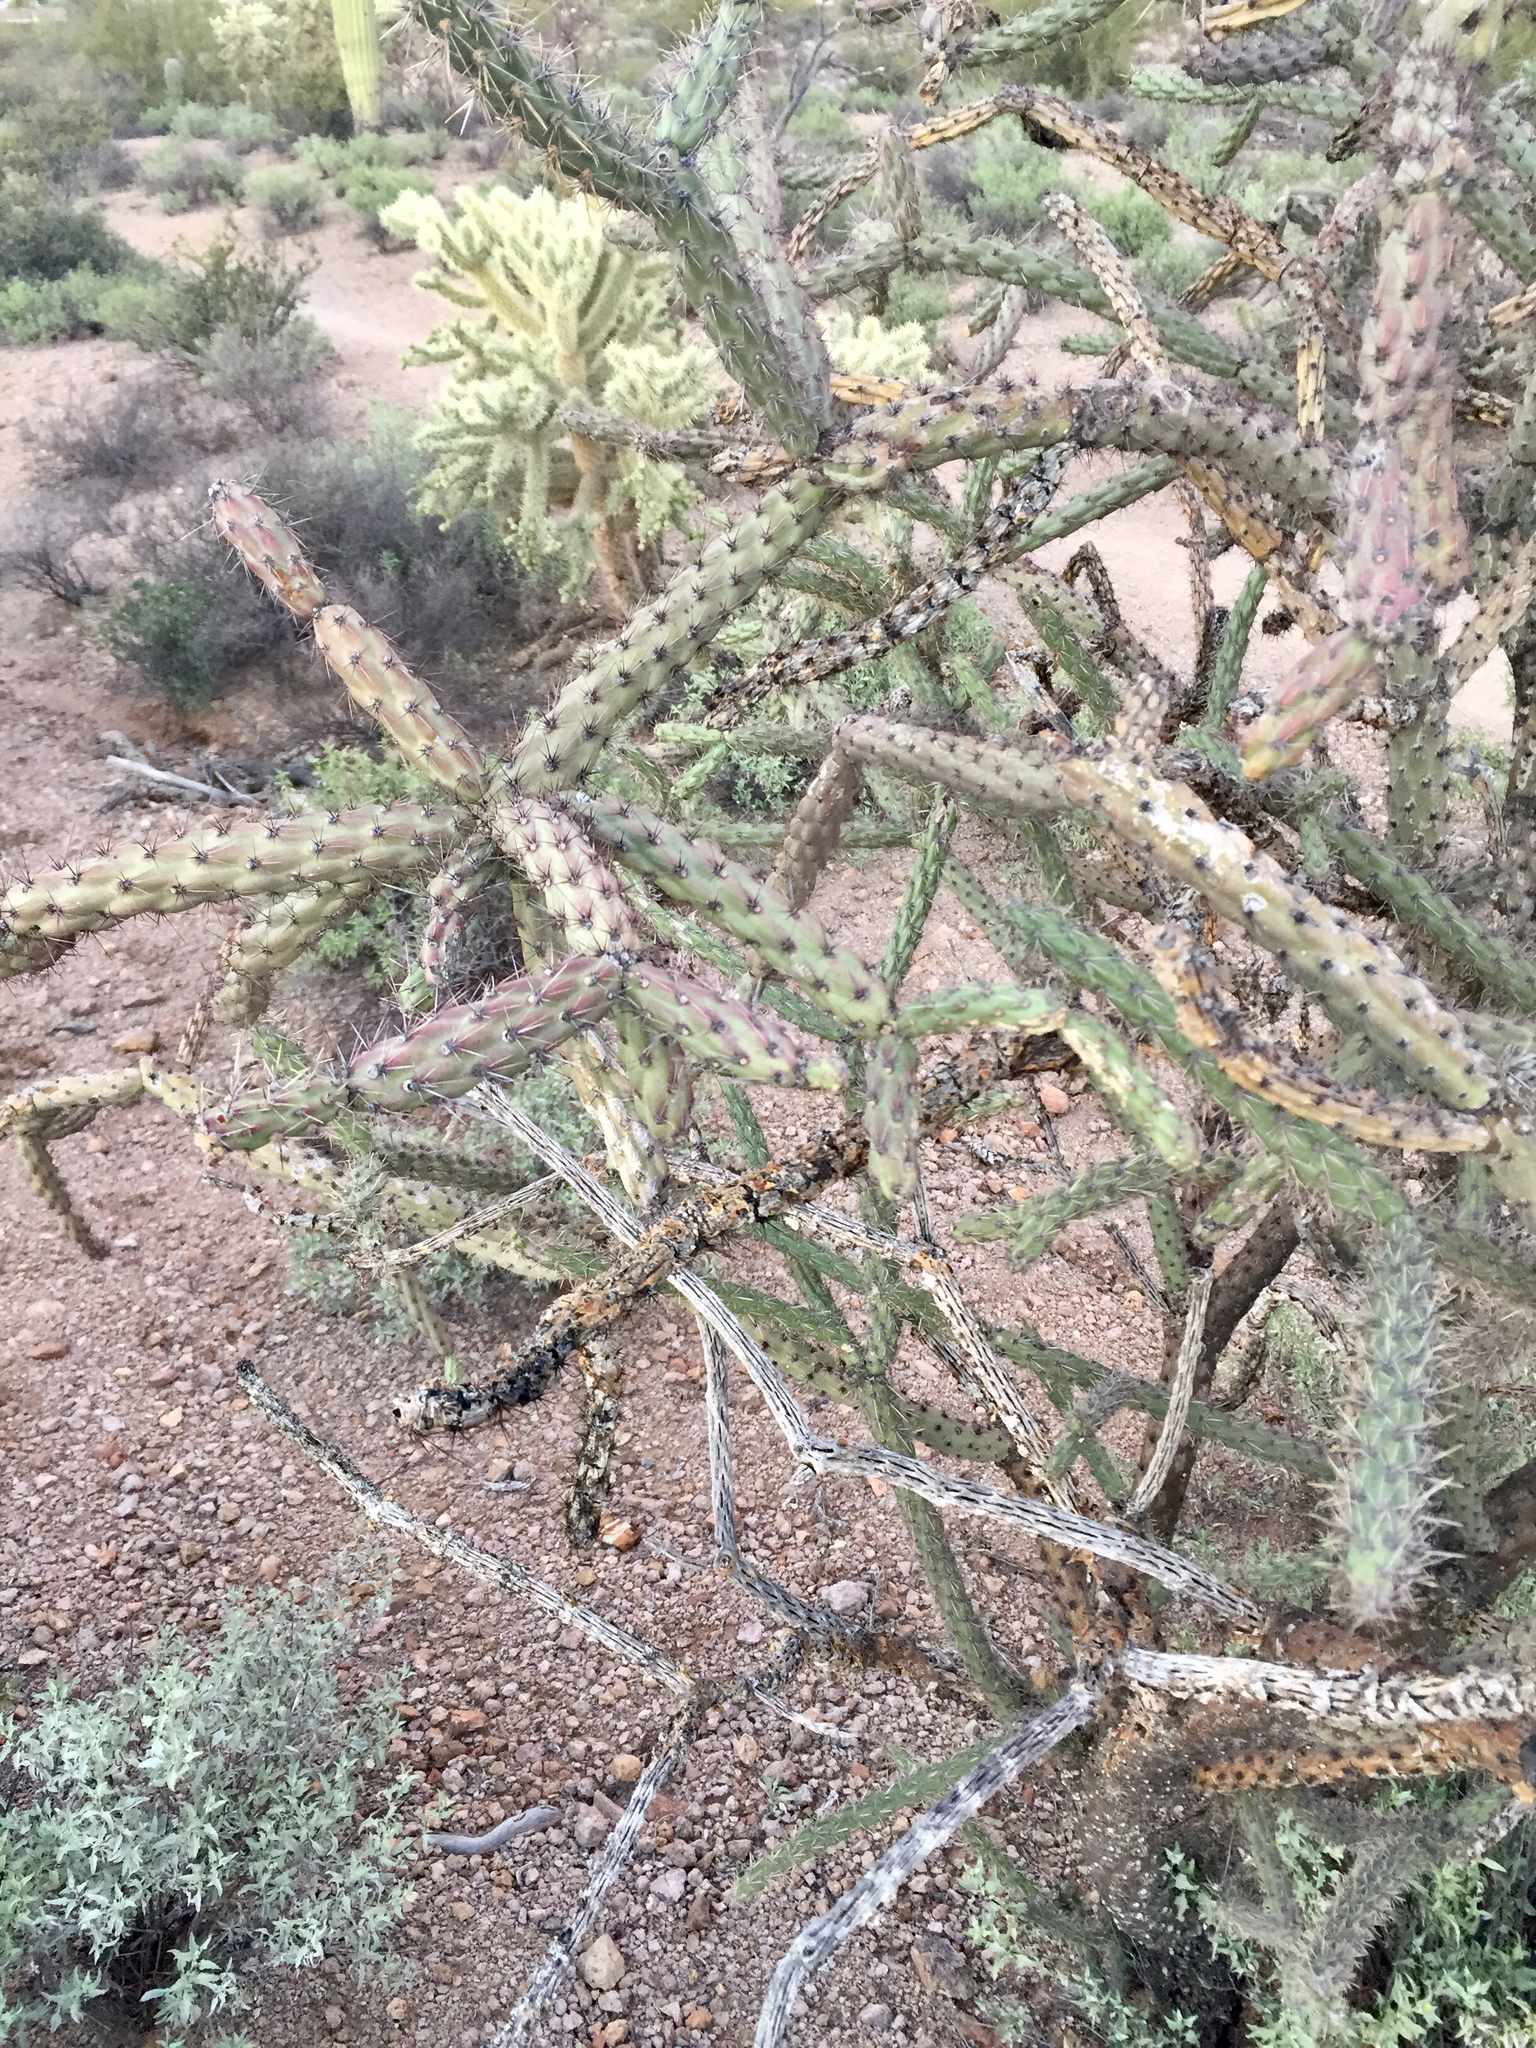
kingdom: Plantae
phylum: Tracheophyta
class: Magnoliopsida
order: Caryophyllales
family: Cactaceae
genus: Cylindropuntia
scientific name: Cylindropuntia thurberi
